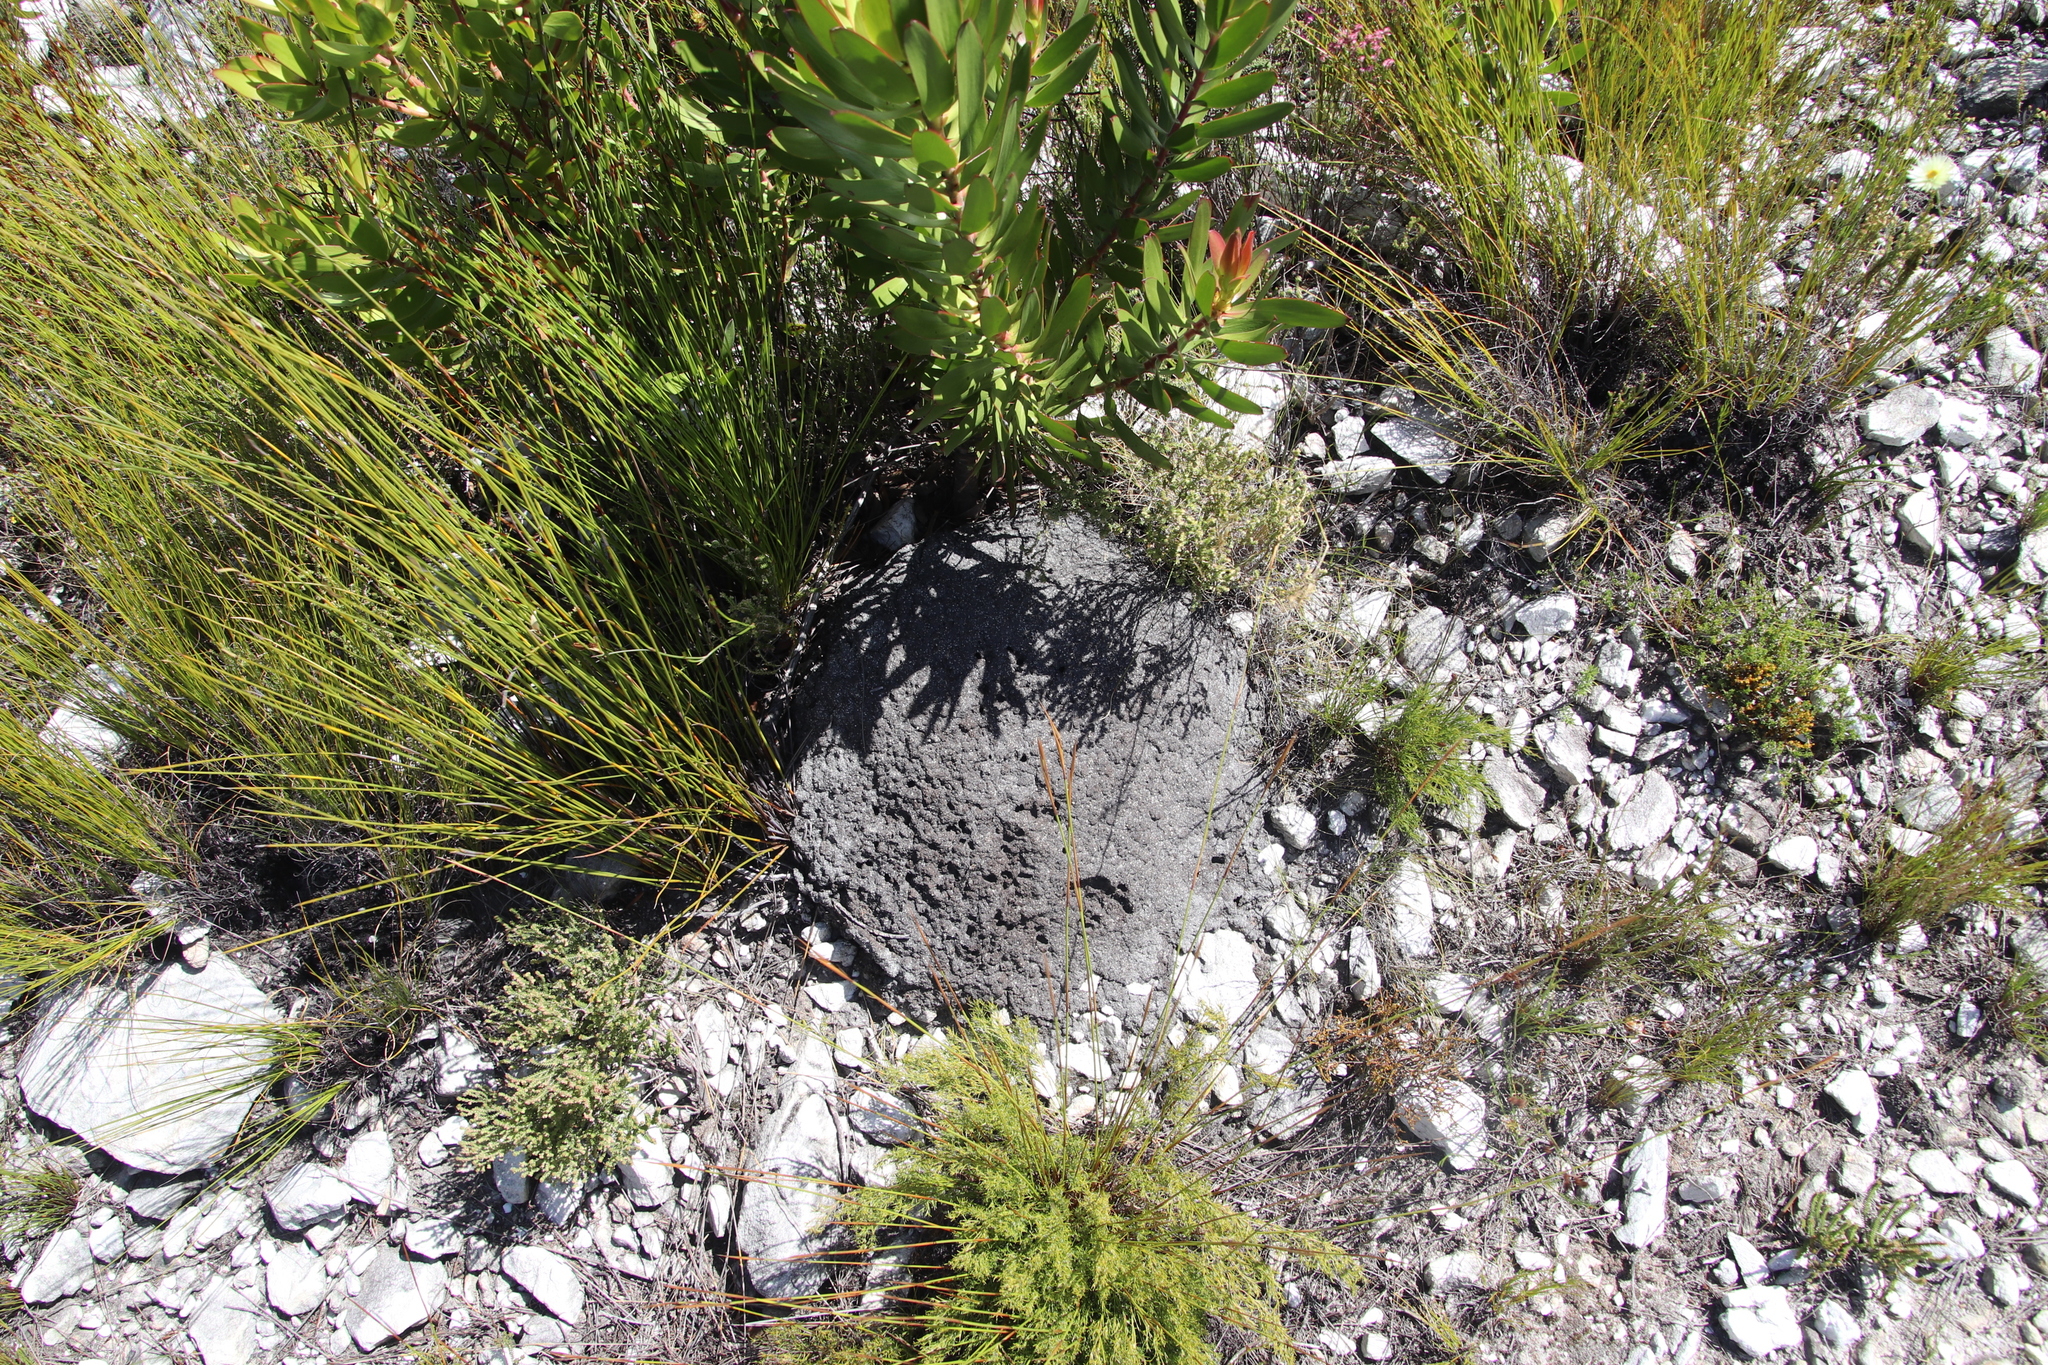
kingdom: Animalia
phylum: Arthropoda
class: Insecta
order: Blattodea
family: Termitidae
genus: Amitermes
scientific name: Amitermes hastatus
